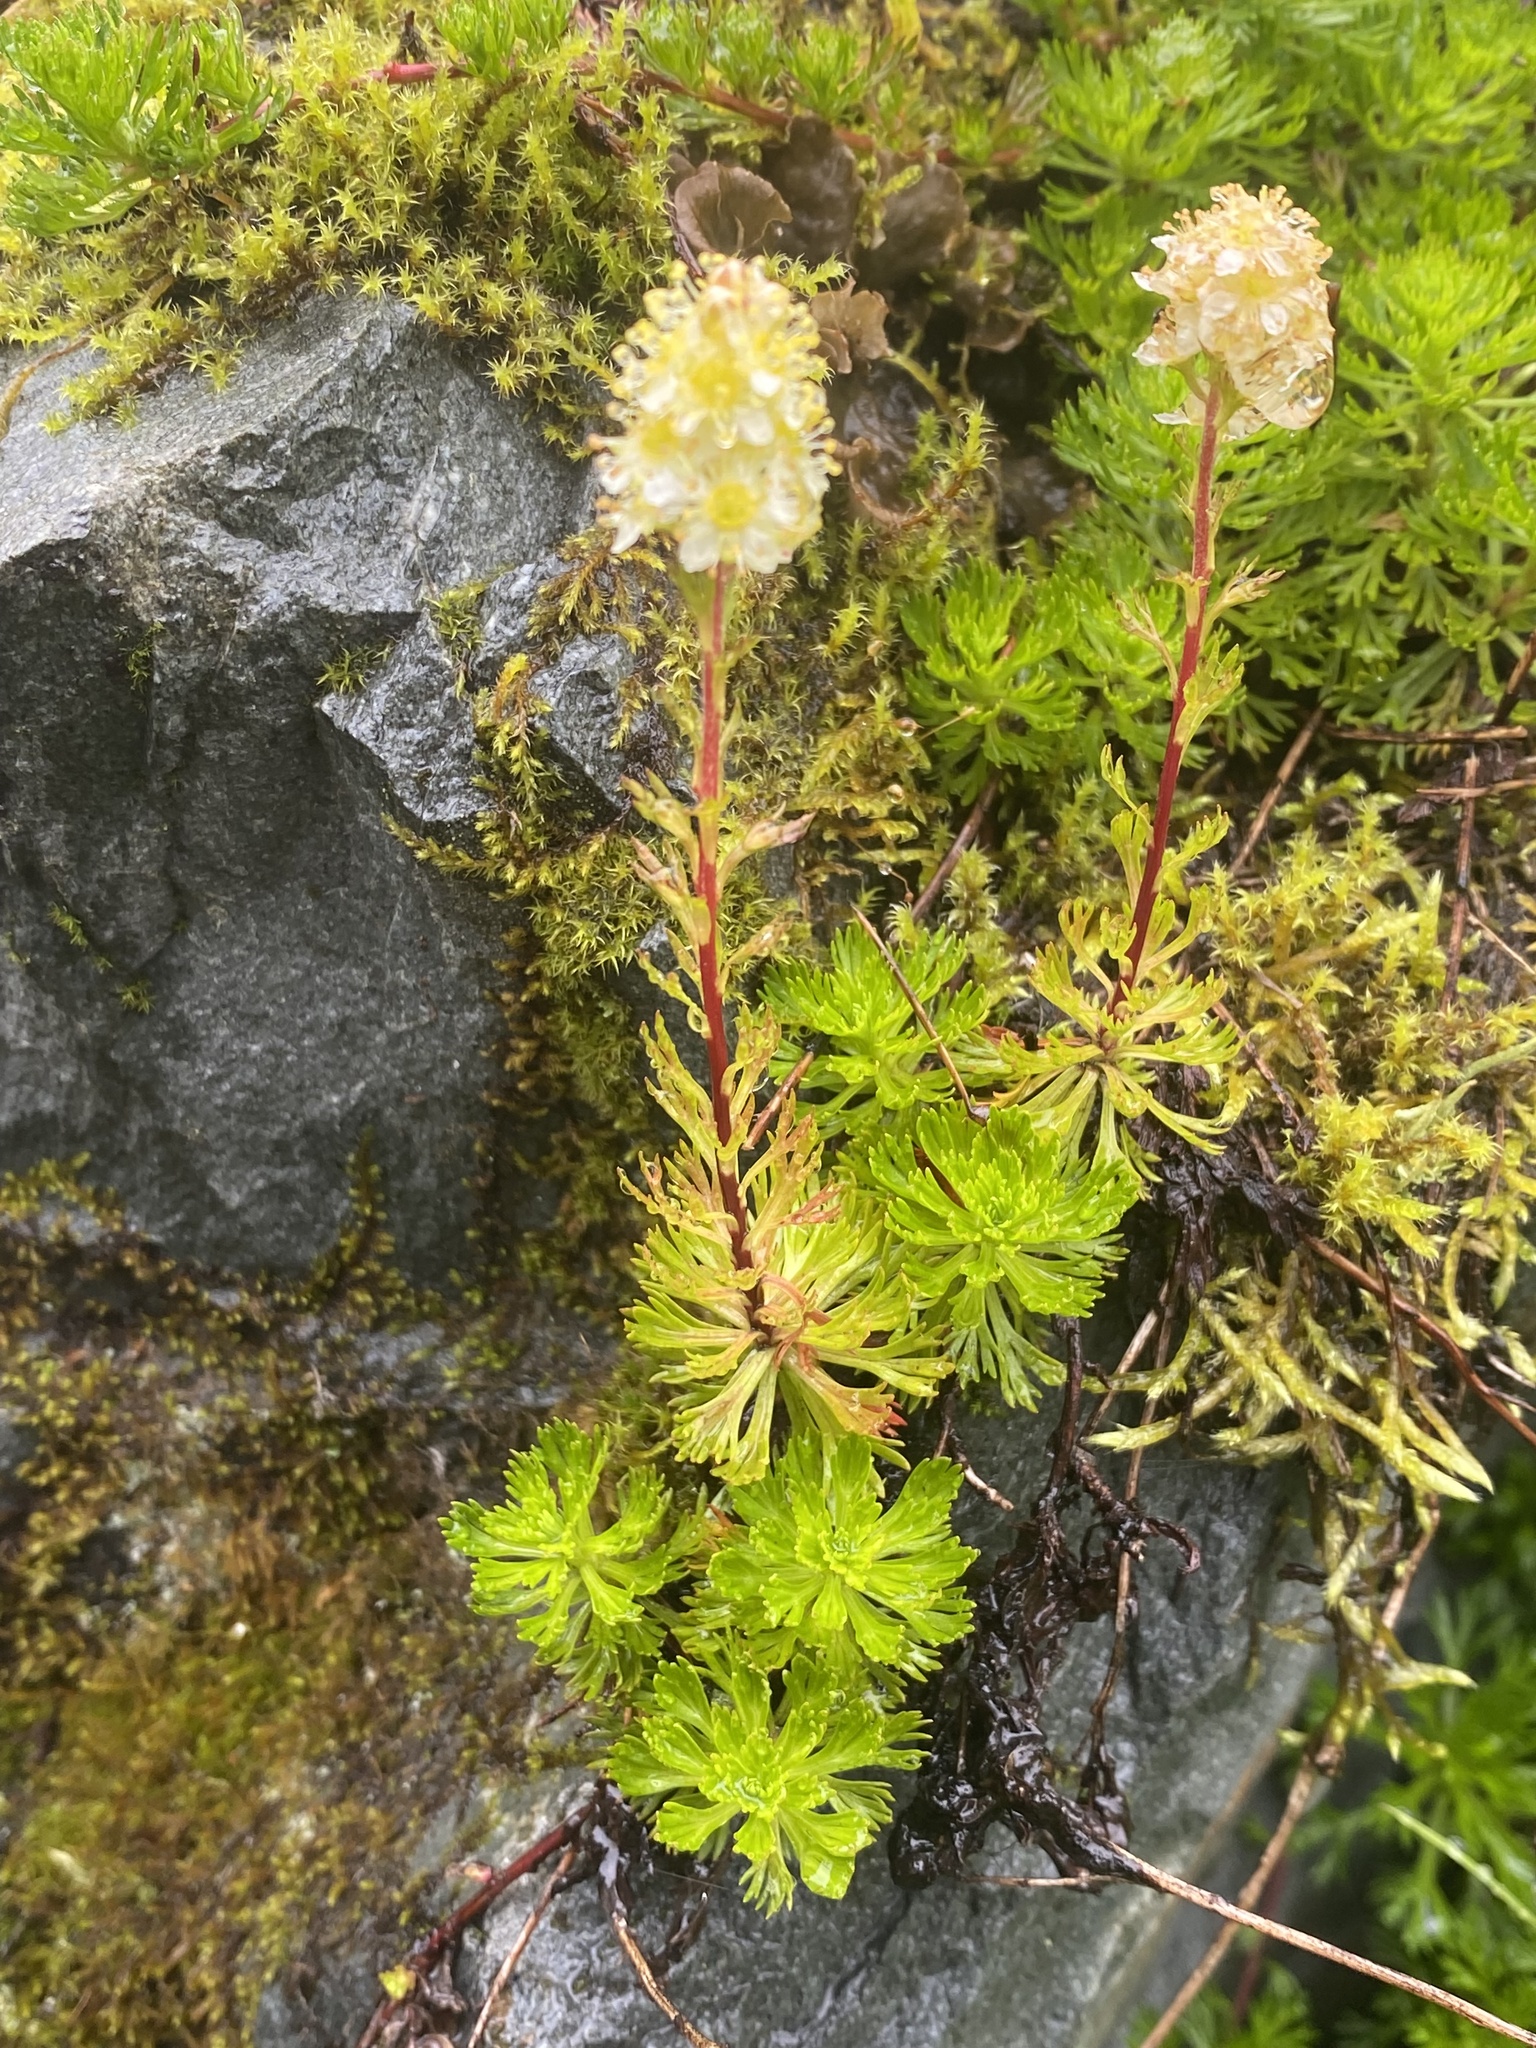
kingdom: Plantae
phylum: Tracheophyta
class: Magnoliopsida
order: Rosales
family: Rosaceae
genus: Luetkea
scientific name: Luetkea pectinata
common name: Partridgefoot
